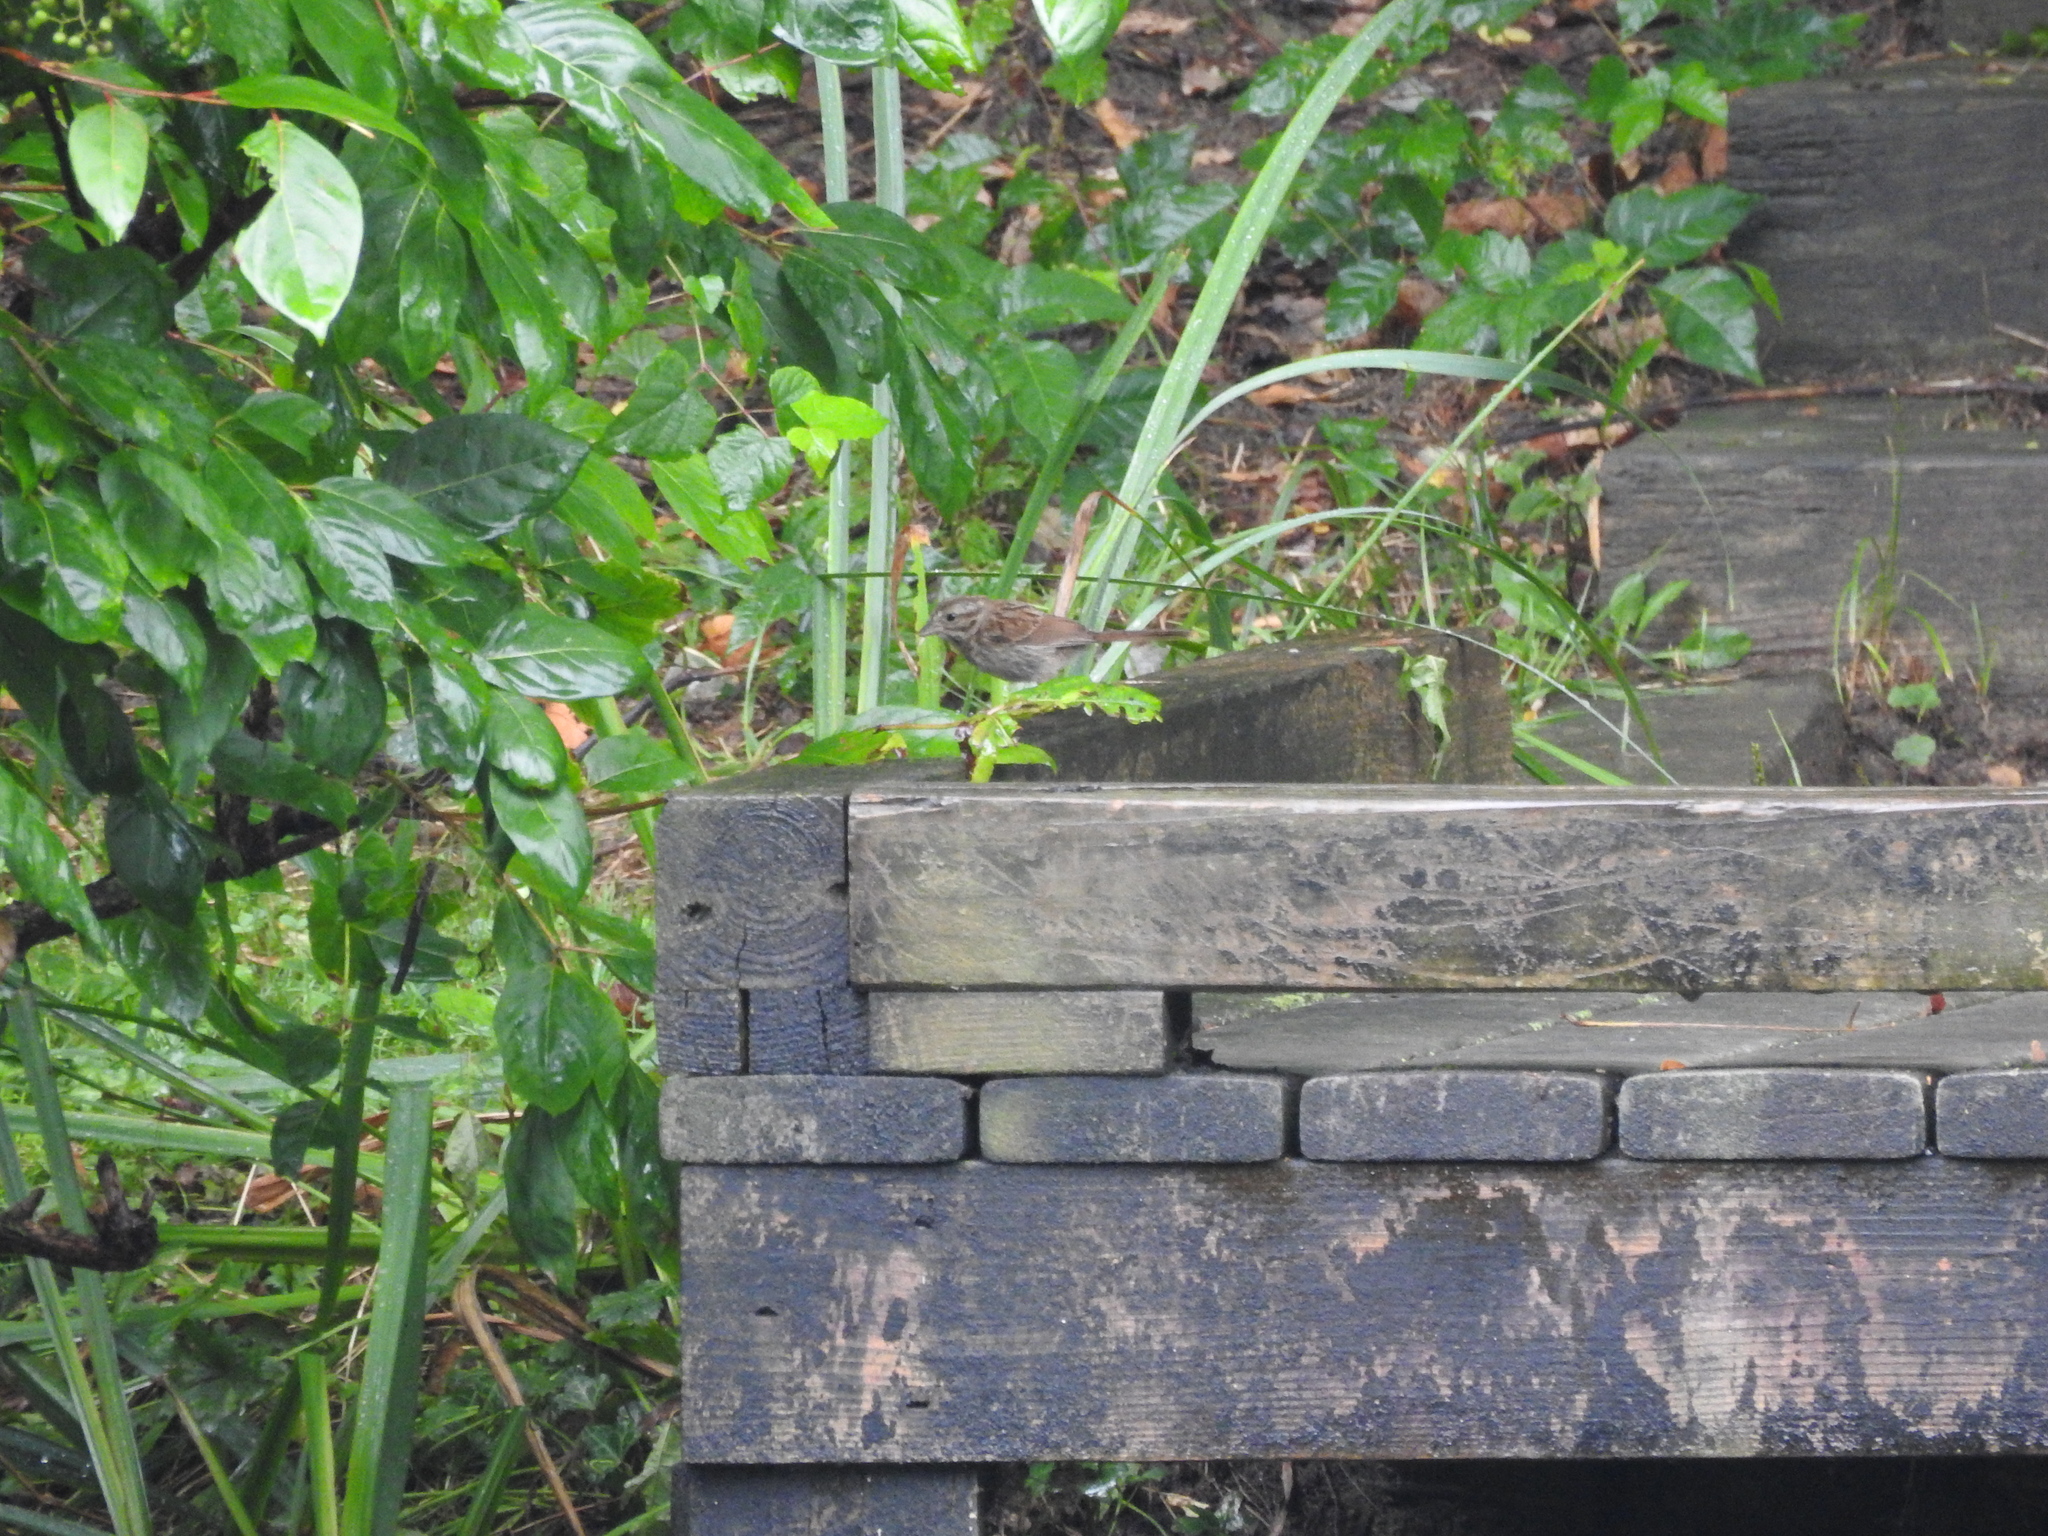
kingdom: Animalia
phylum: Chordata
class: Aves
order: Passeriformes
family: Passerellidae
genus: Melospiza
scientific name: Melospiza melodia
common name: Song sparrow
